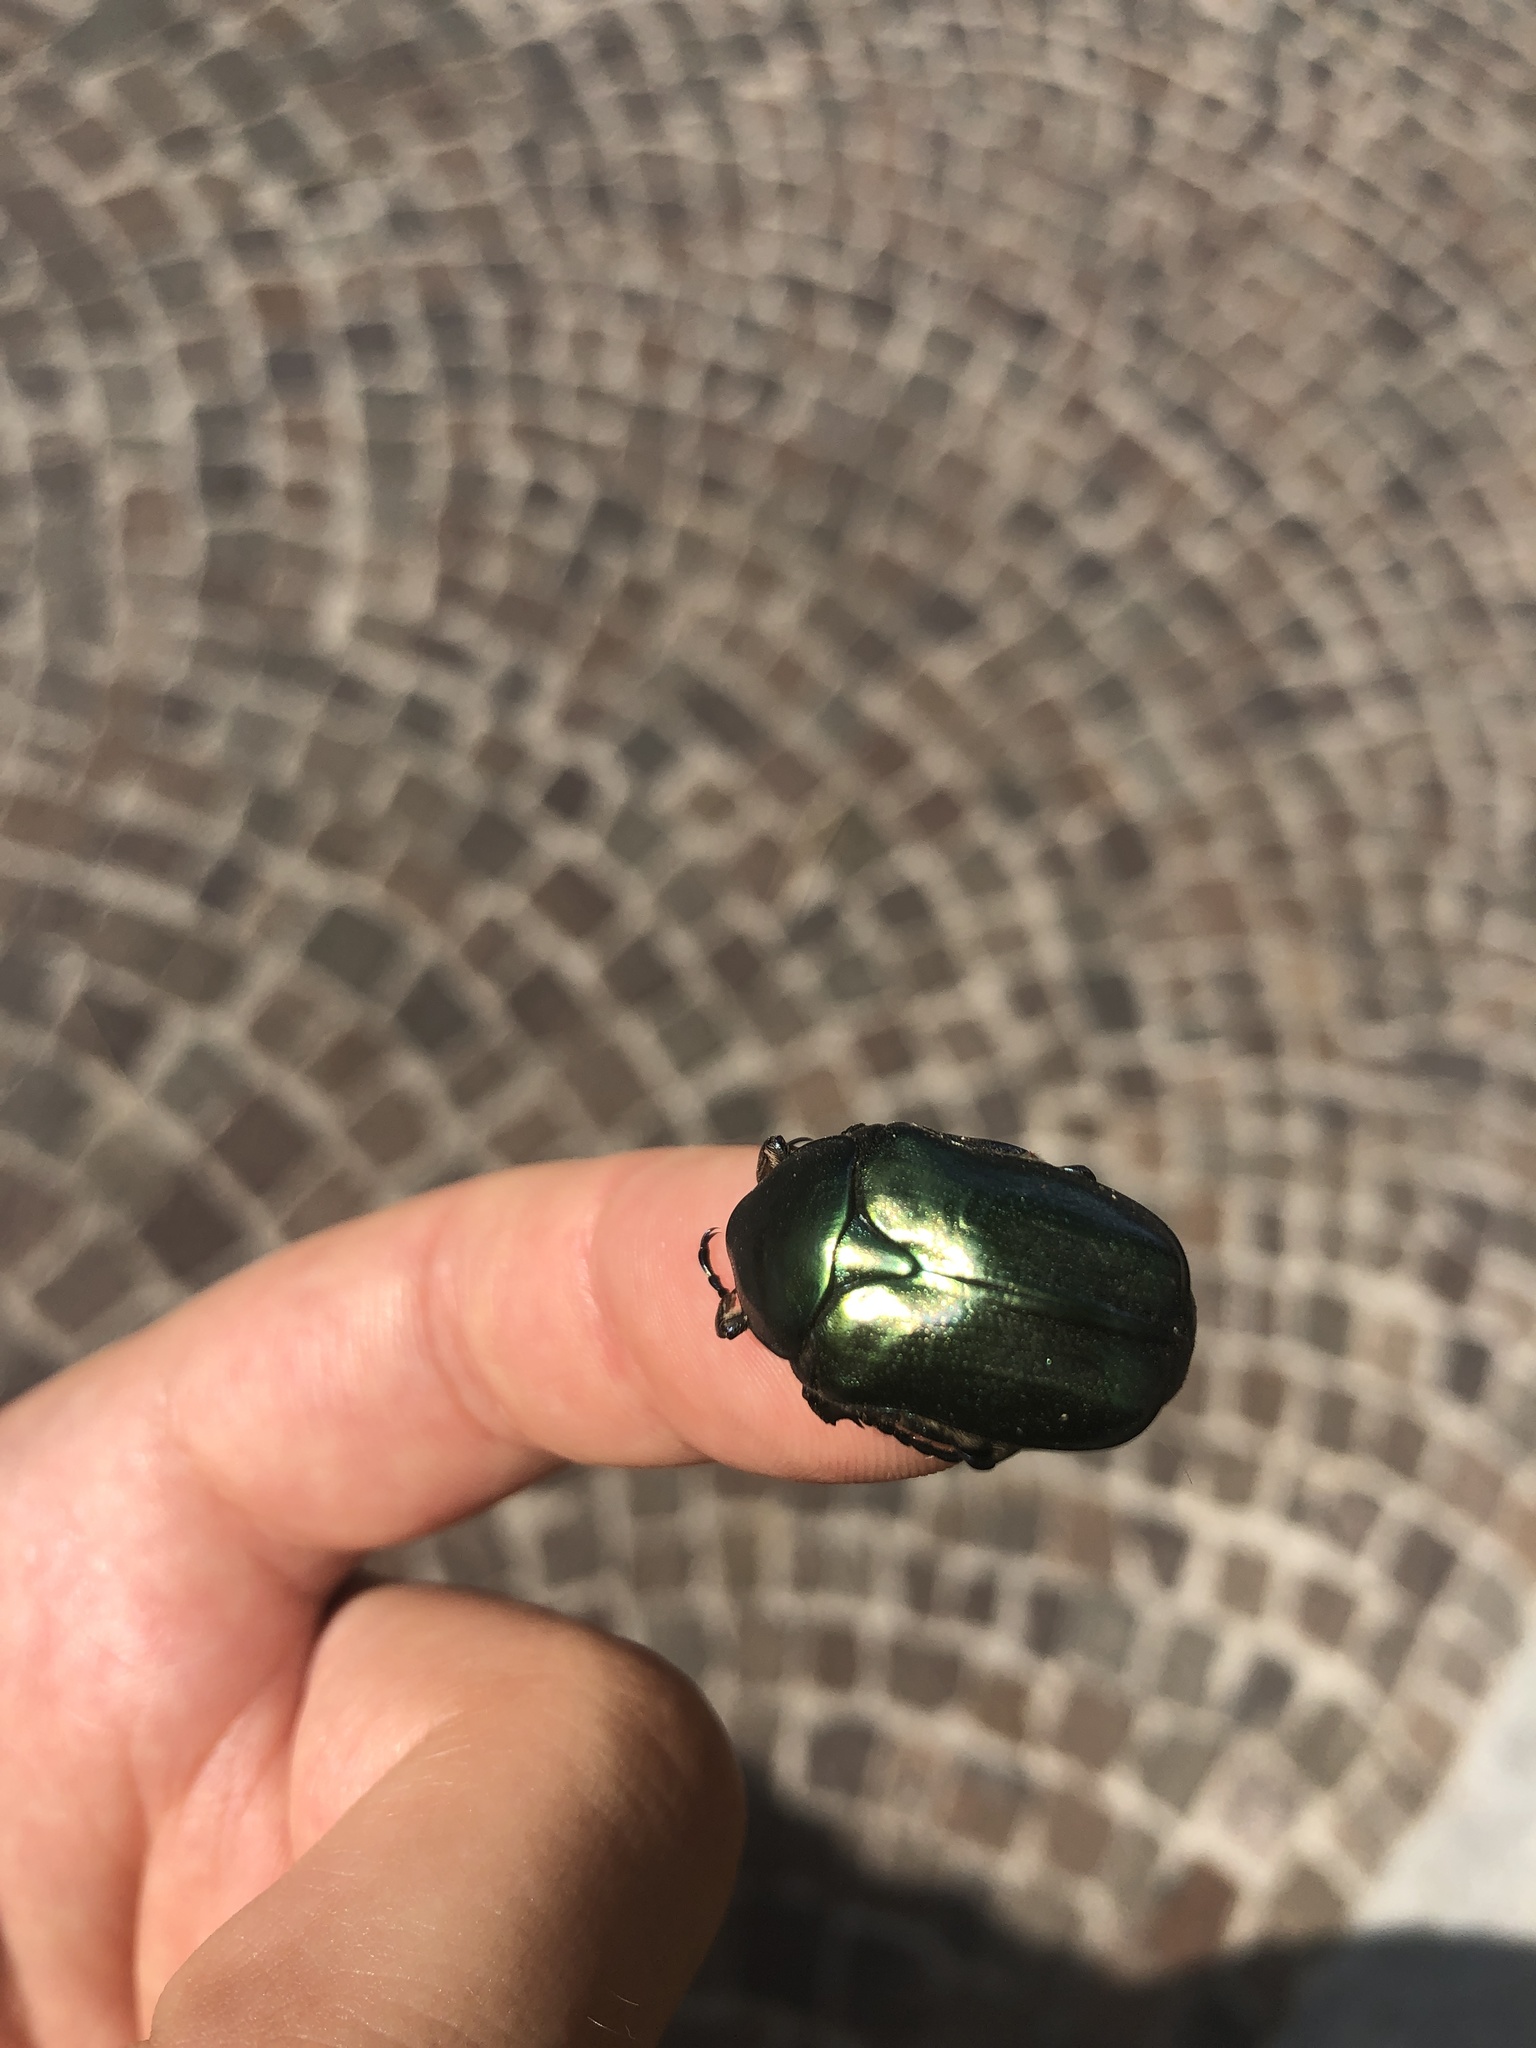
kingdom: Animalia
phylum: Arthropoda
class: Insecta
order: Coleoptera
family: Scarabaeidae
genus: Protaetia
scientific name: Protaetia angustata
